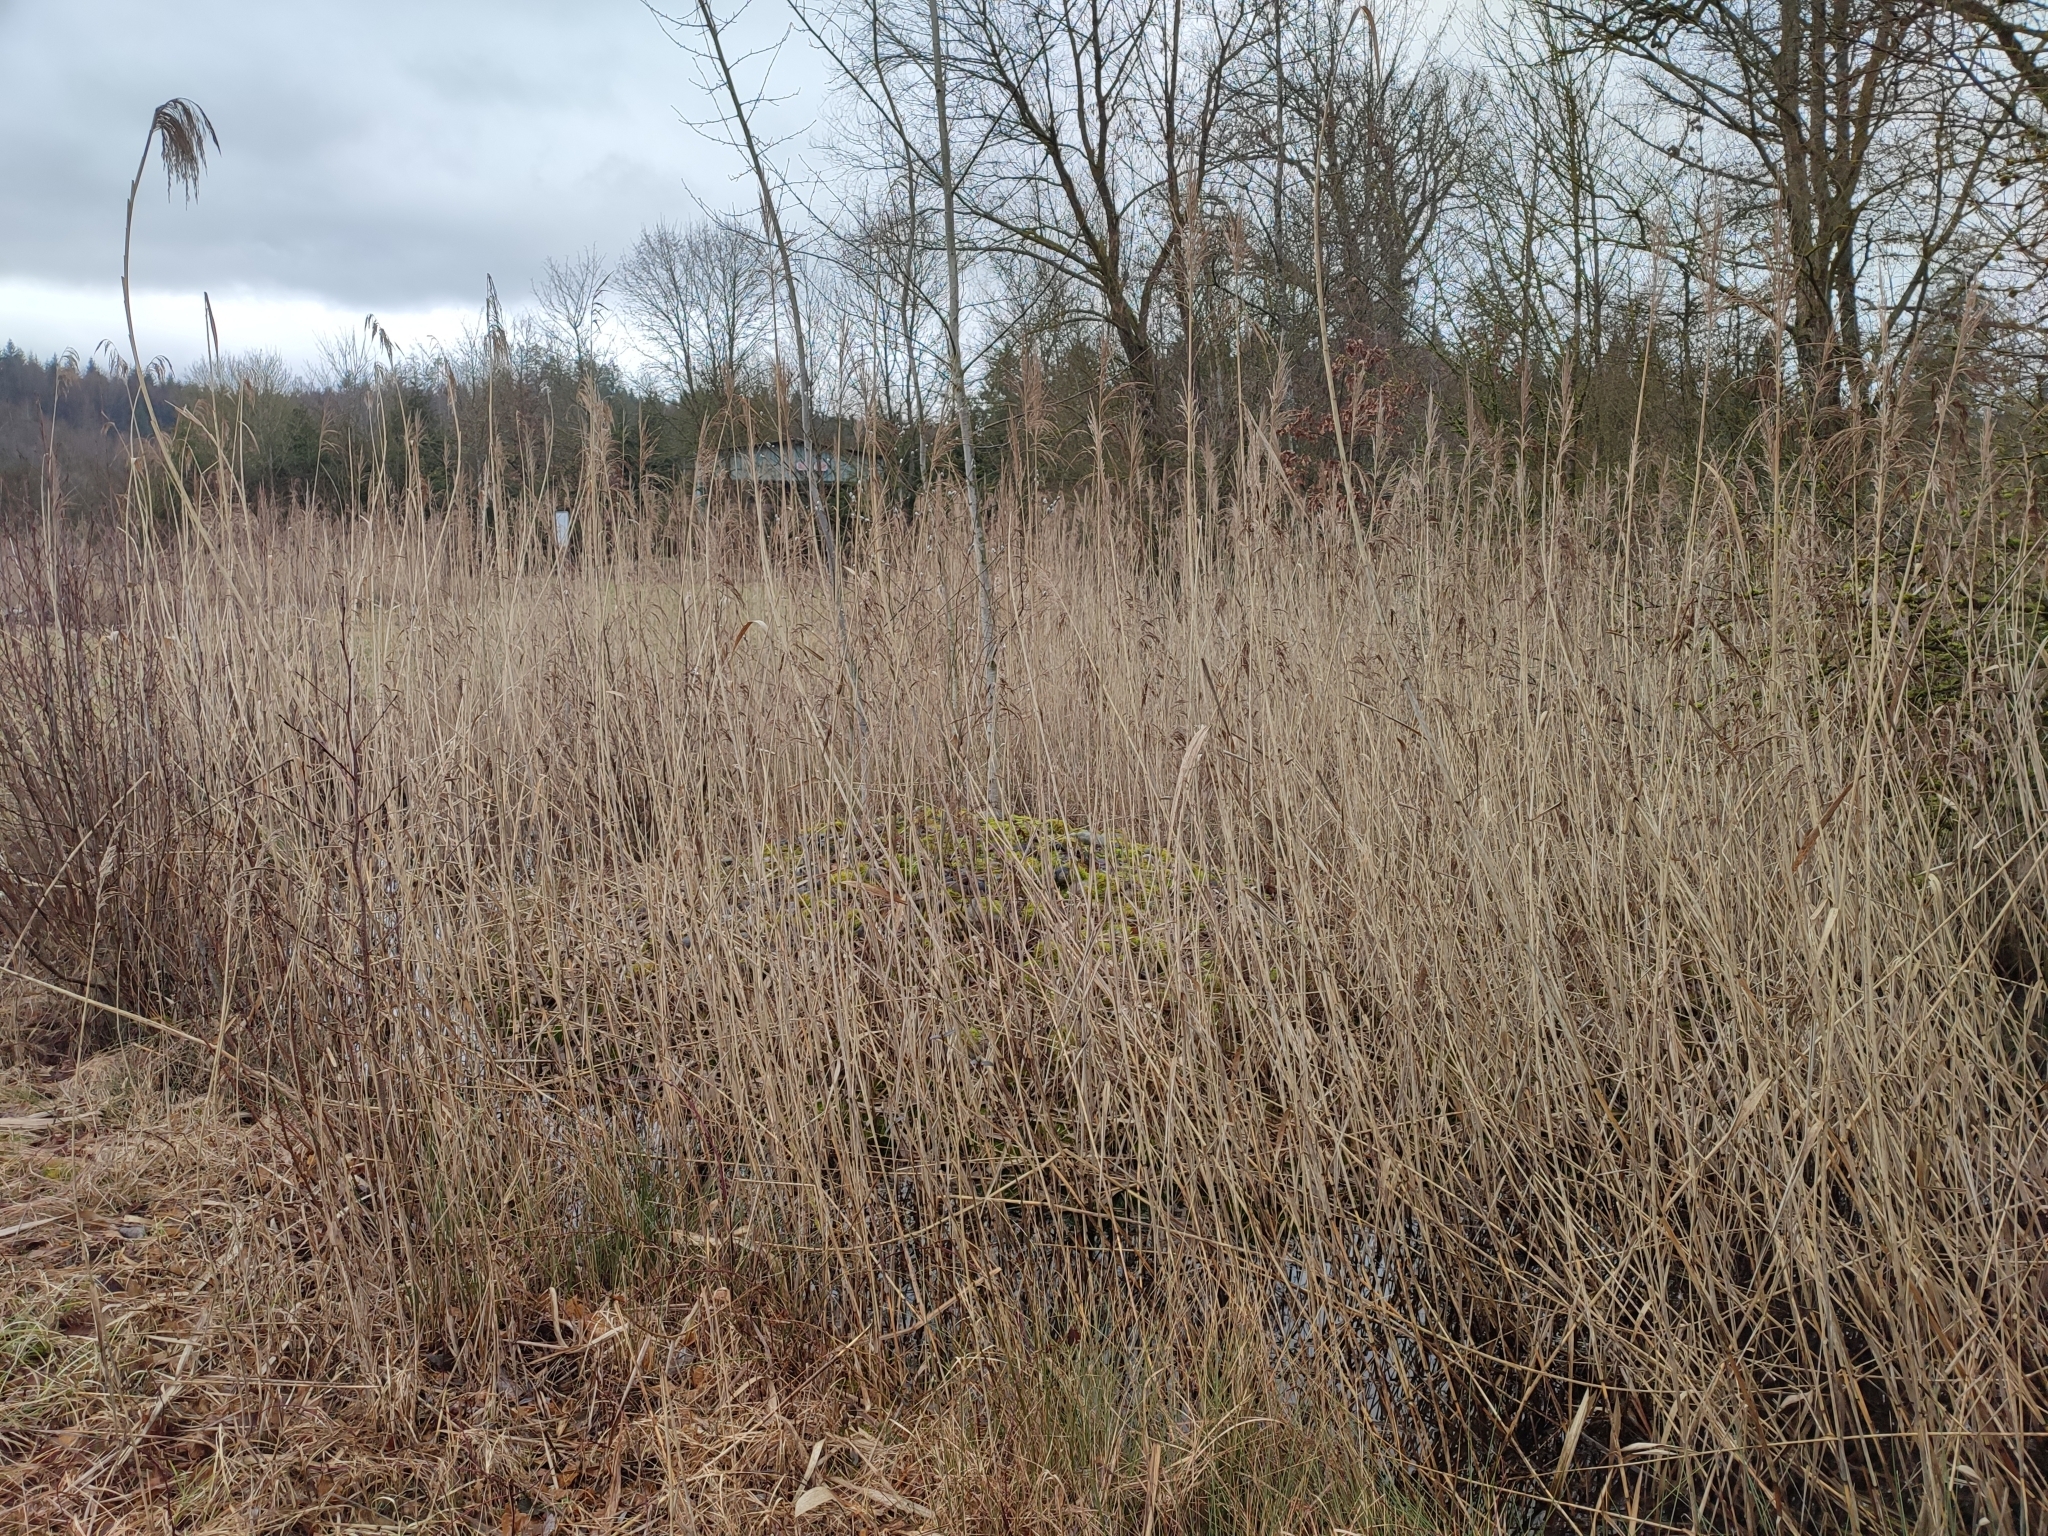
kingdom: Plantae
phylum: Tracheophyta
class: Liliopsida
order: Poales
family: Poaceae
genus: Phragmites
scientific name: Phragmites australis
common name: Common reed
